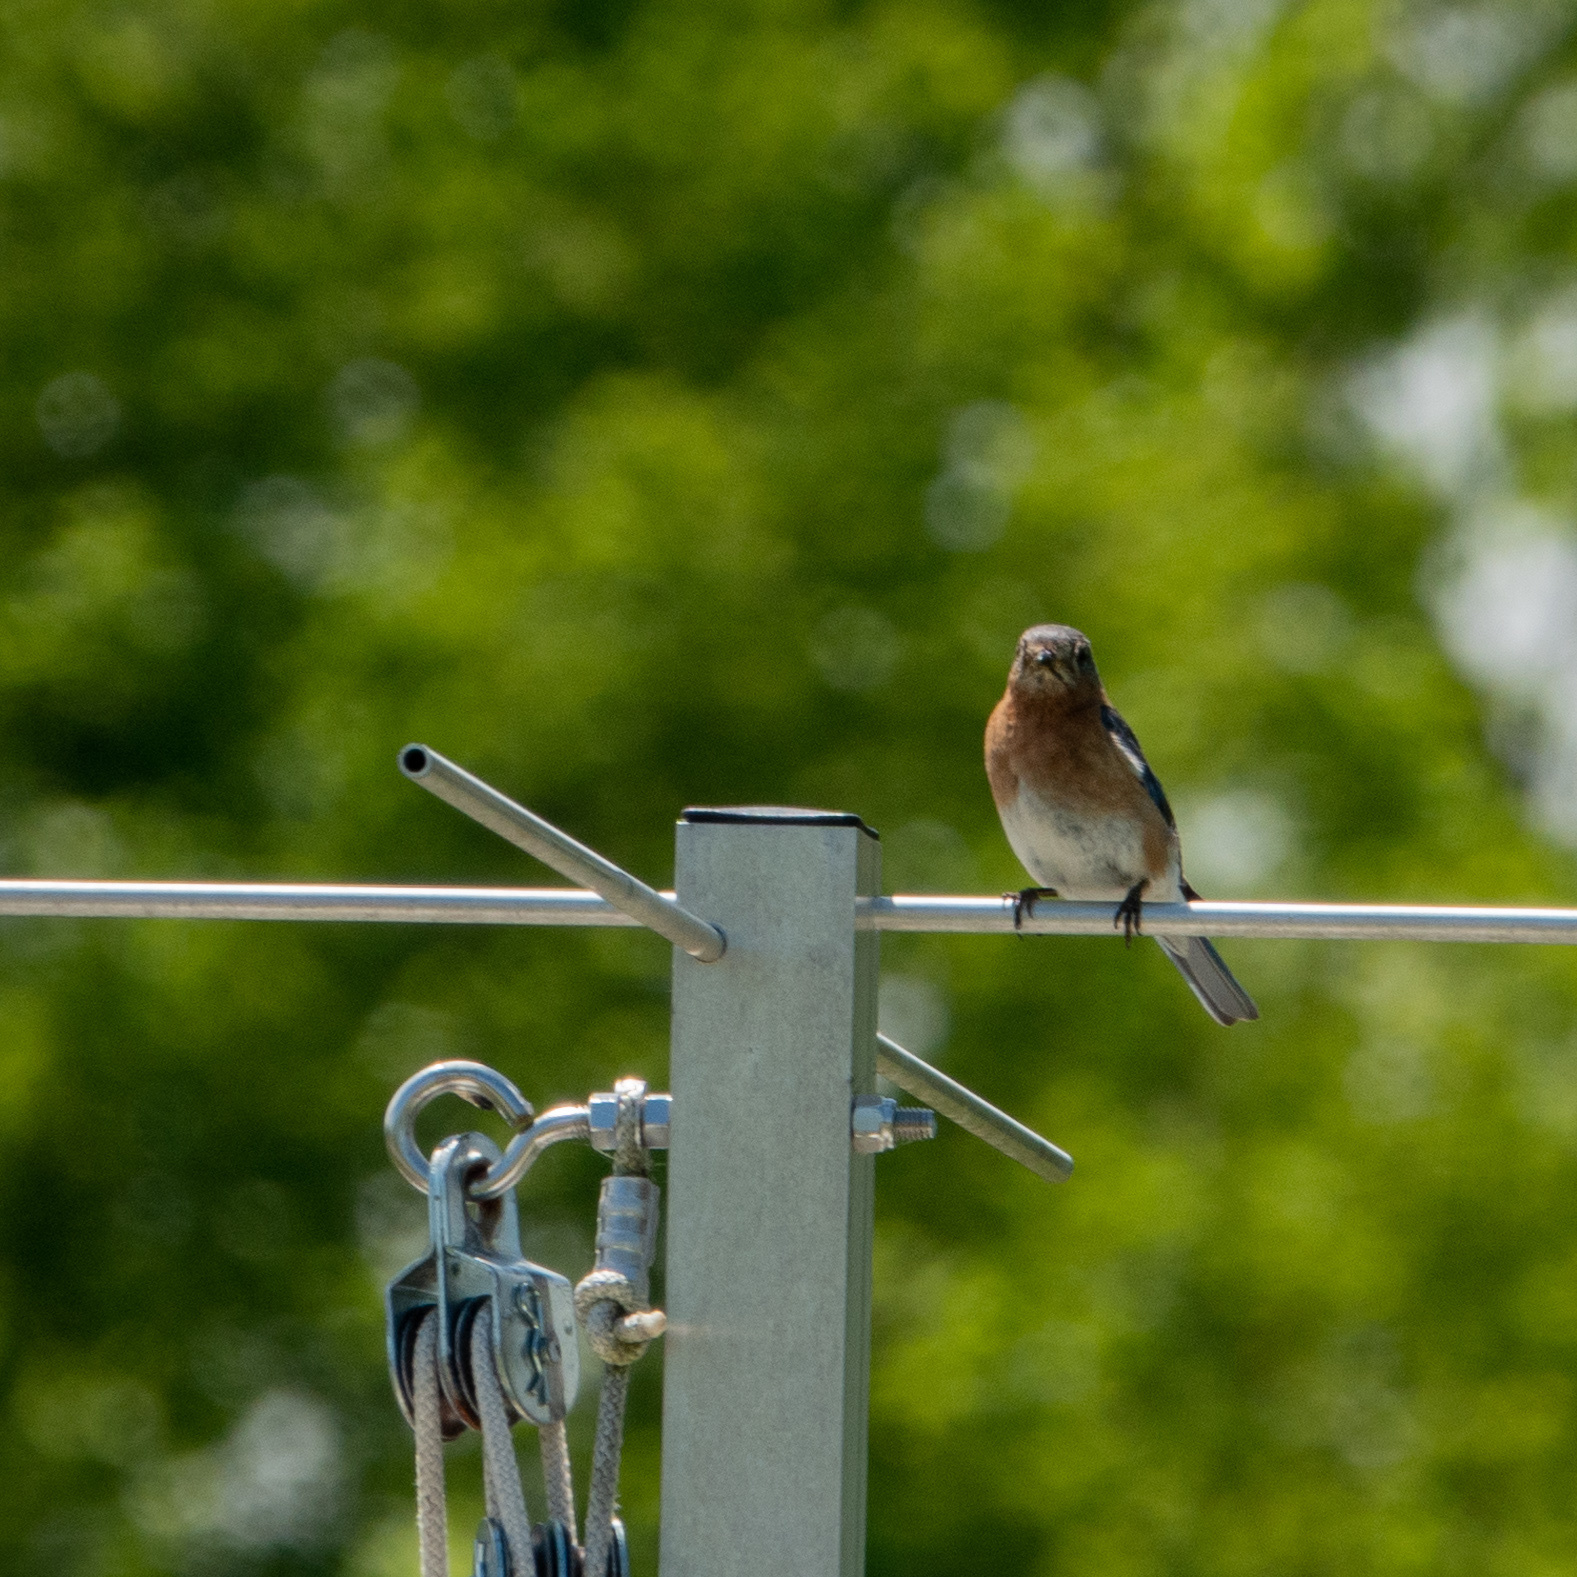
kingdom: Animalia
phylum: Chordata
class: Aves
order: Passeriformes
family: Turdidae
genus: Sialia
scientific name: Sialia sialis
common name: Eastern bluebird
